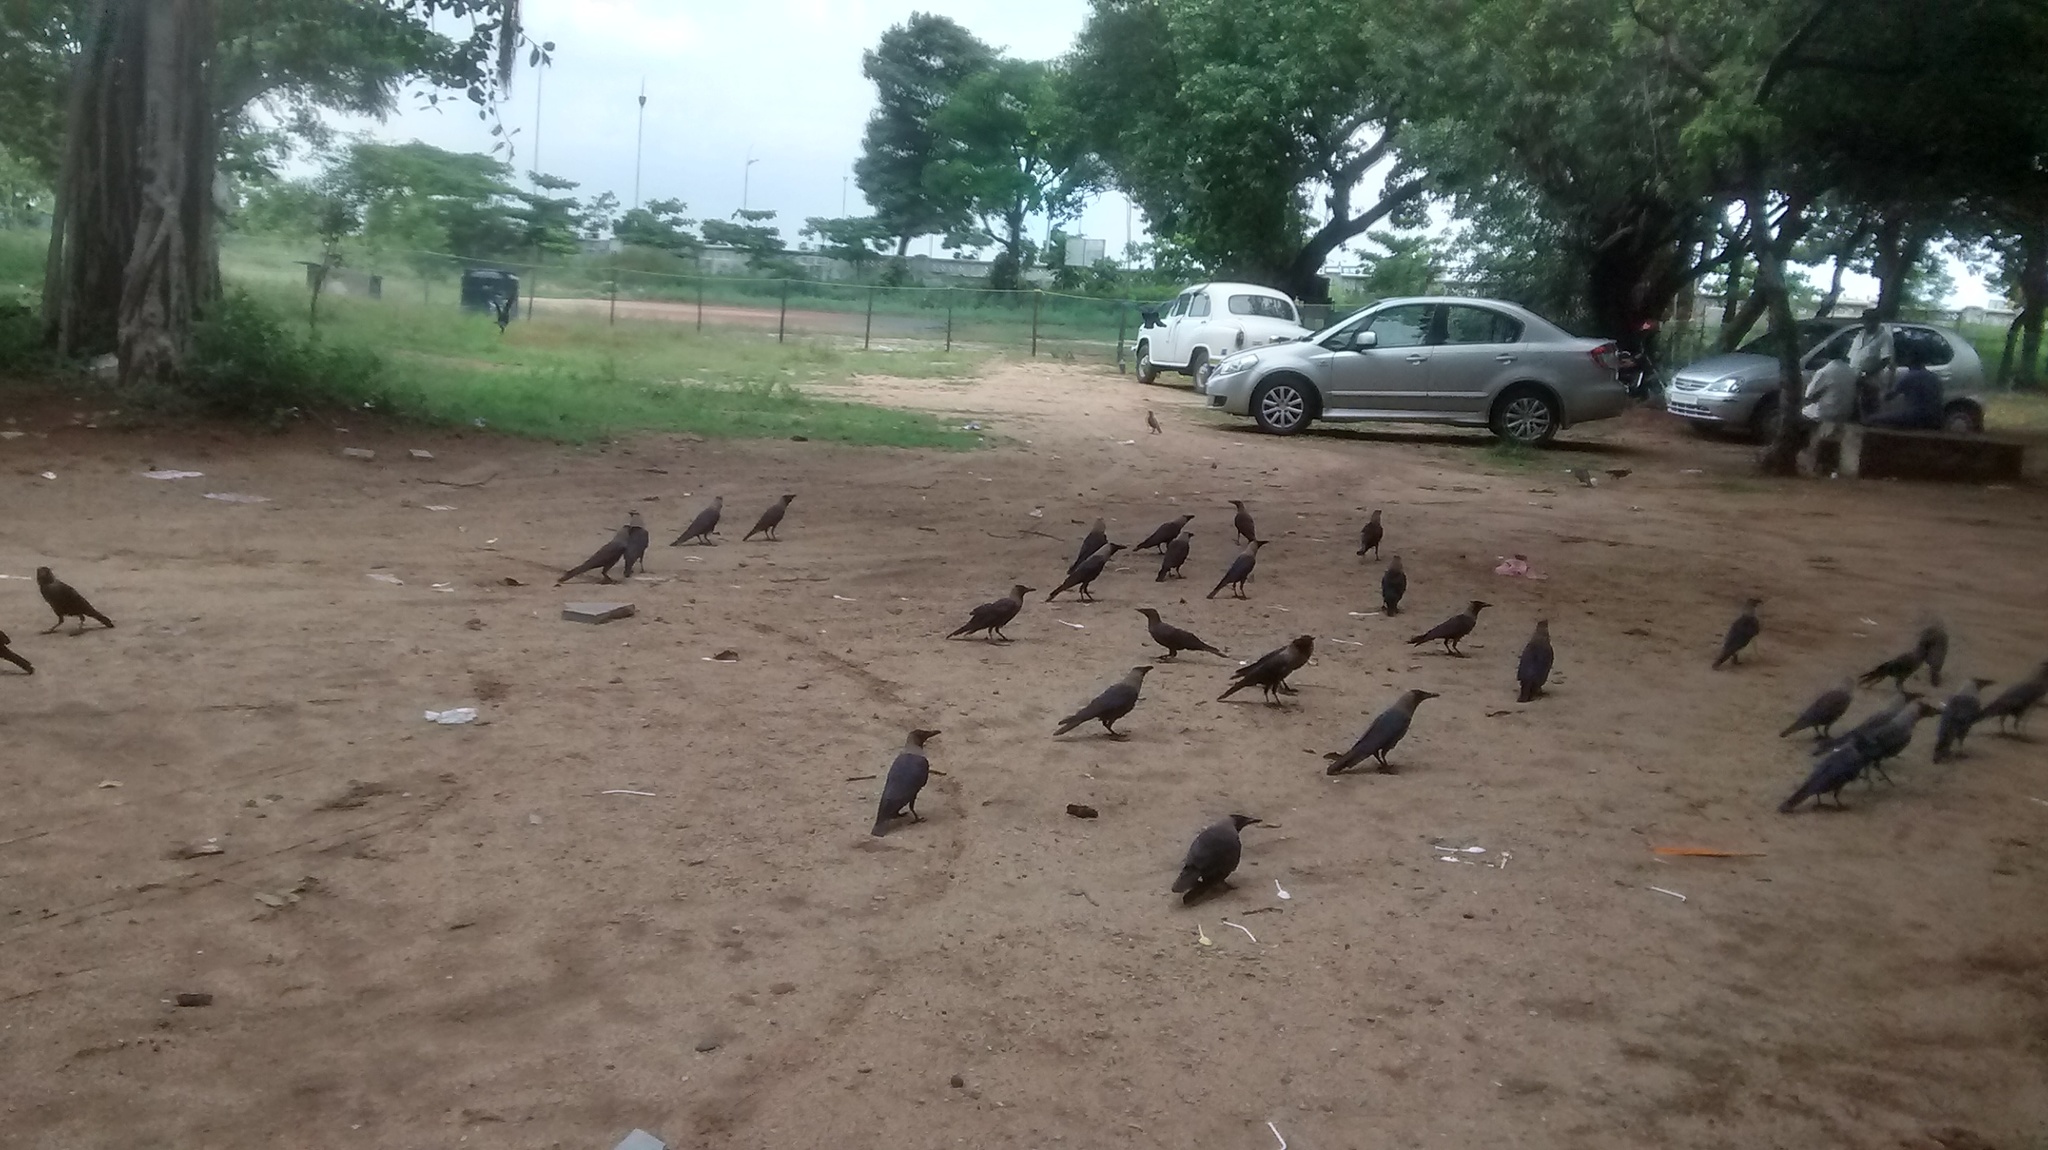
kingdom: Animalia
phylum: Chordata
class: Aves
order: Passeriformes
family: Corvidae
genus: Corvus
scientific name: Corvus splendens
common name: House crow
